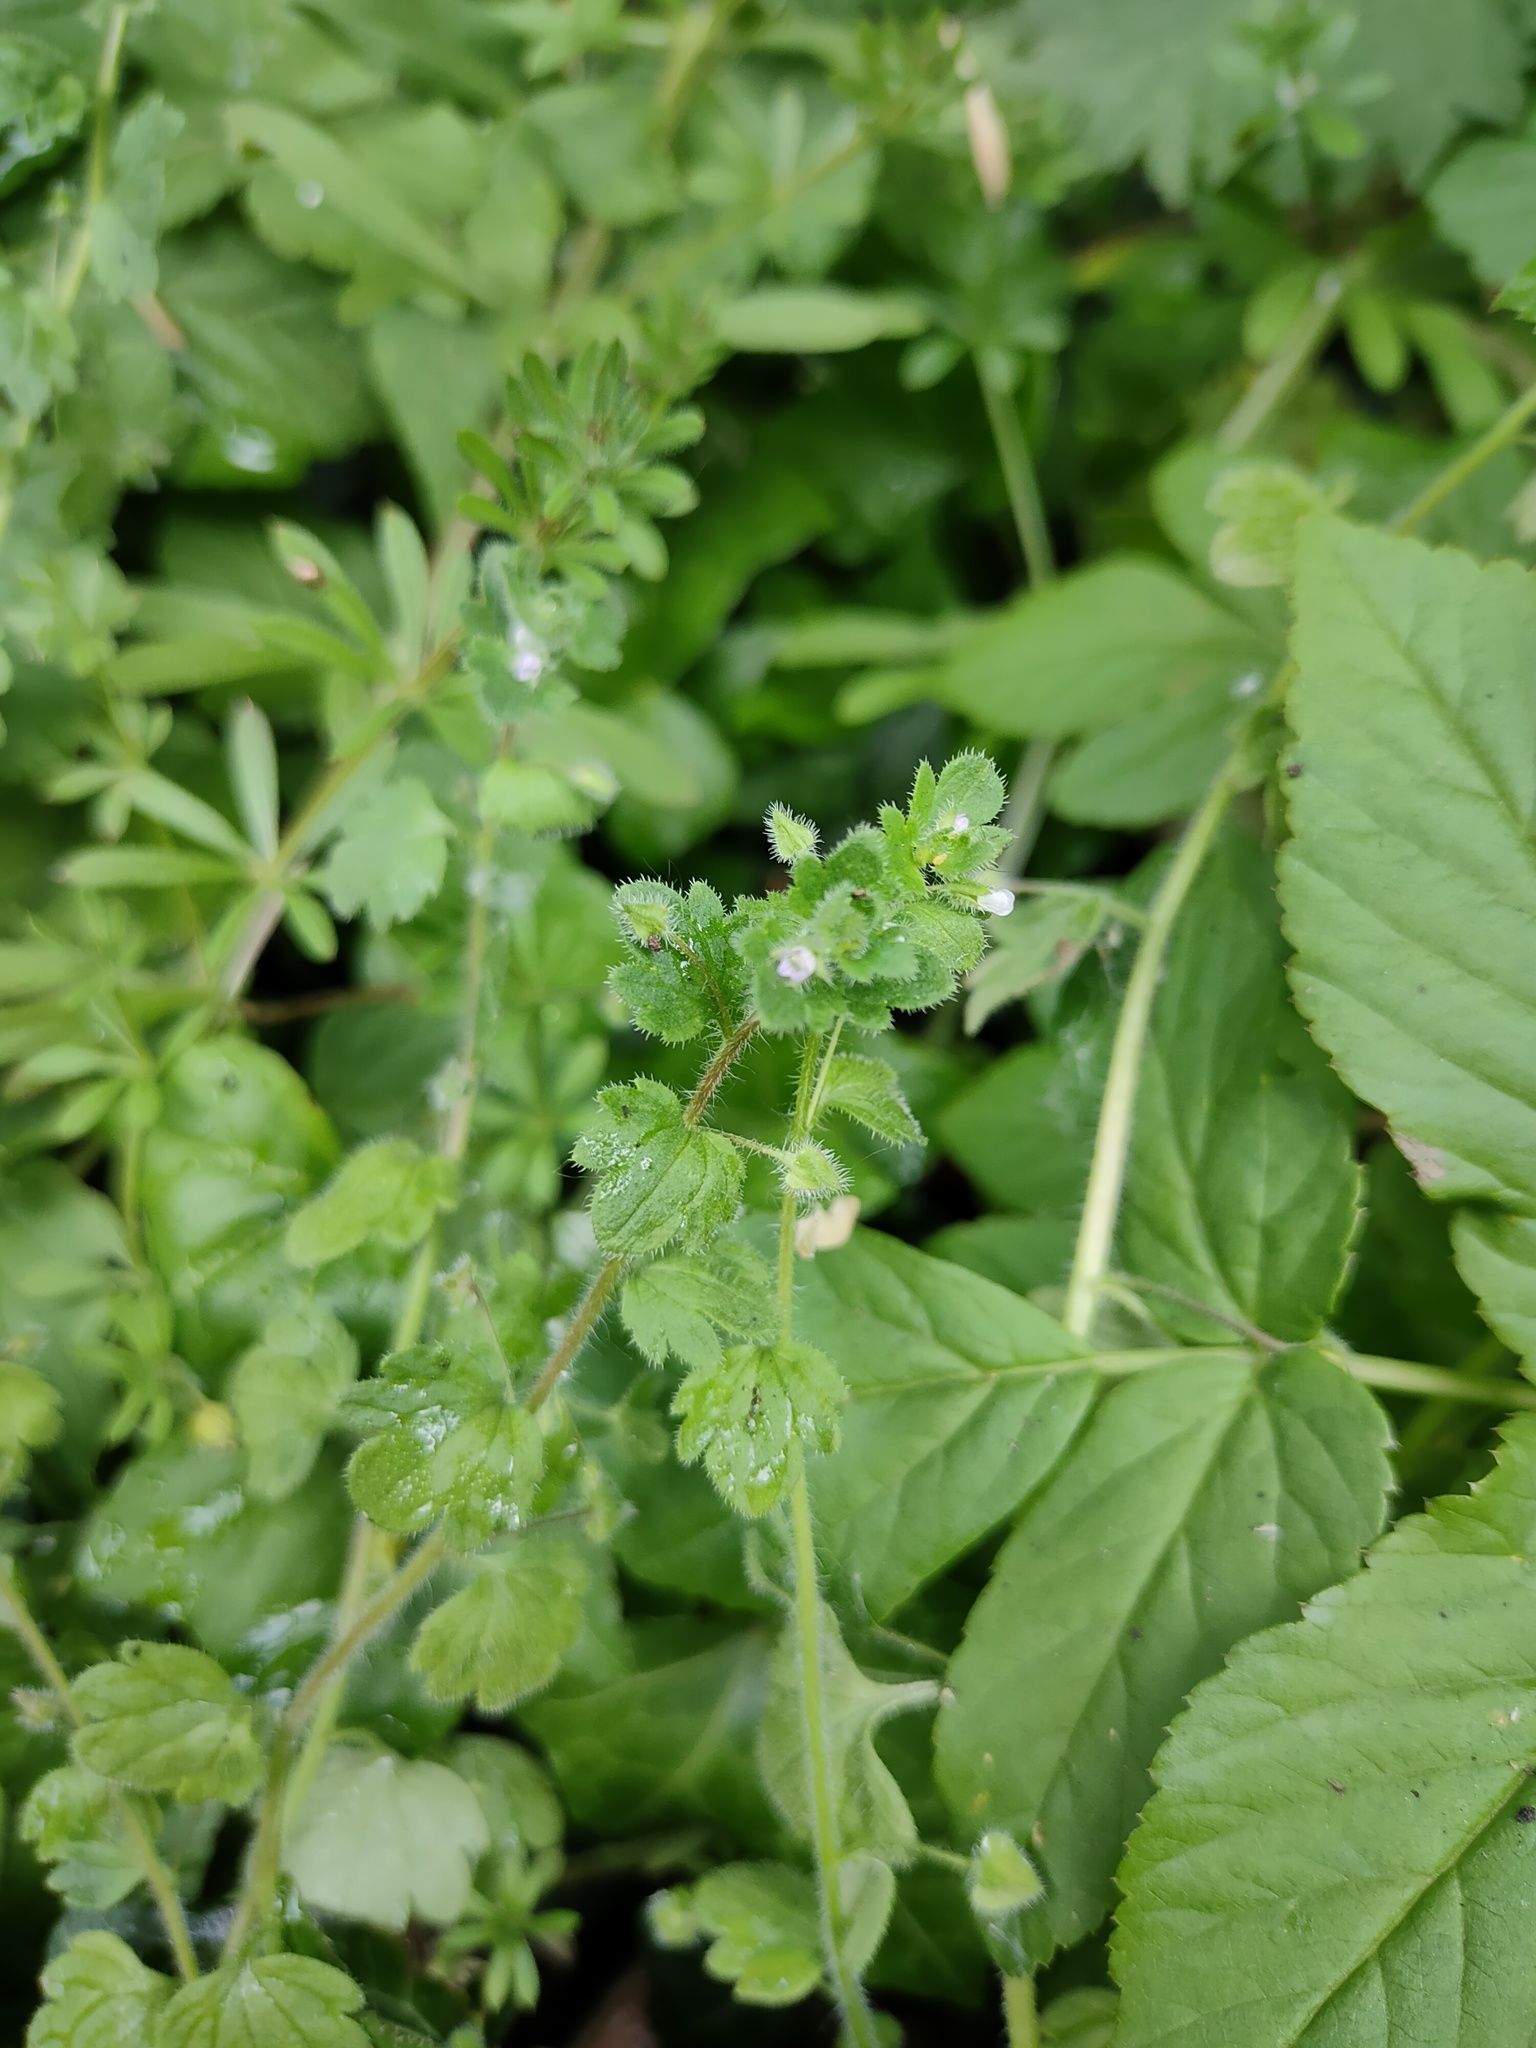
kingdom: Plantae
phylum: Tracheophyta
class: Magnoliopsida
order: Lamiales
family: Plantaginaceae
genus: Veronica
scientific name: Veronica sublobata
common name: False ivy-leaved speedwell
